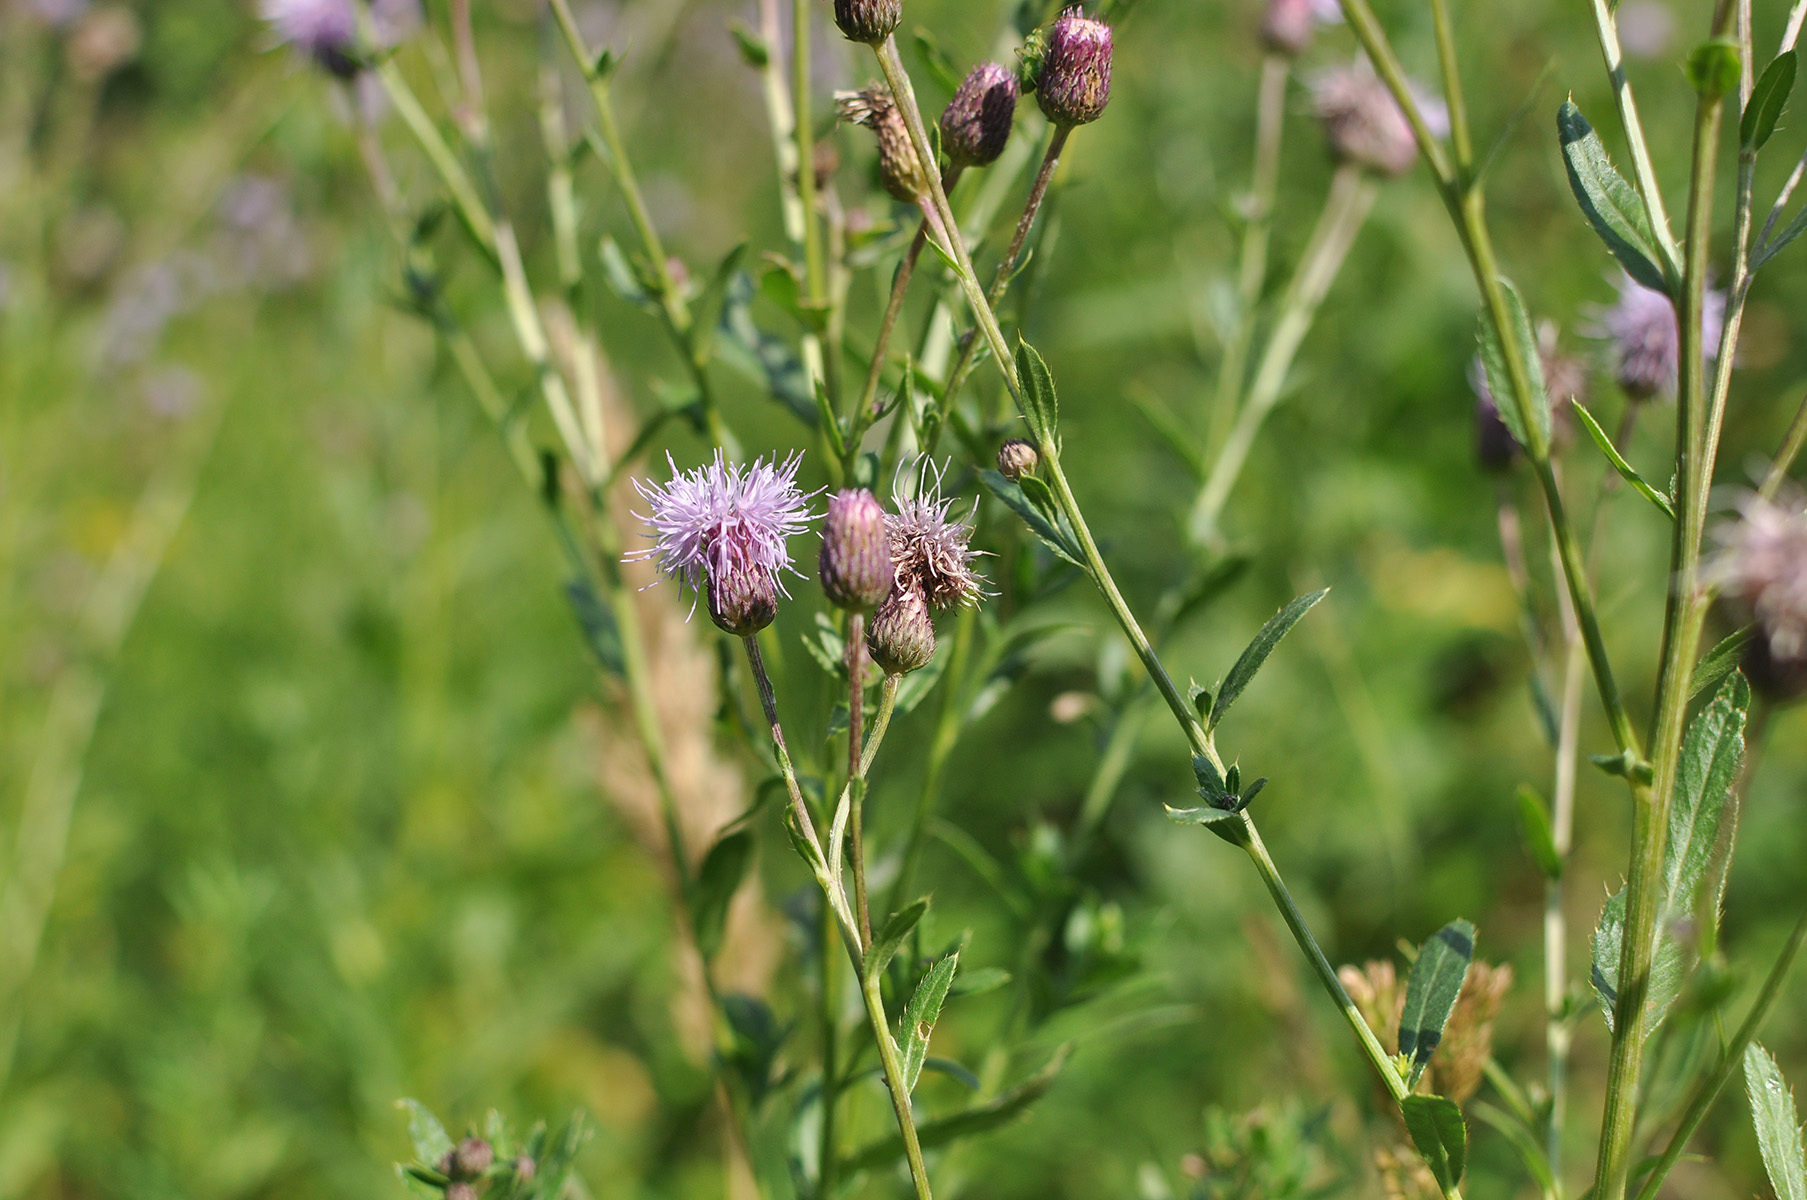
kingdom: Plantae
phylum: Tracheophyta
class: Magnoliopsida
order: Asterales
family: Asteraceae
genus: Cirsium
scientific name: Cirsium arvense
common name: Creeping thistle
